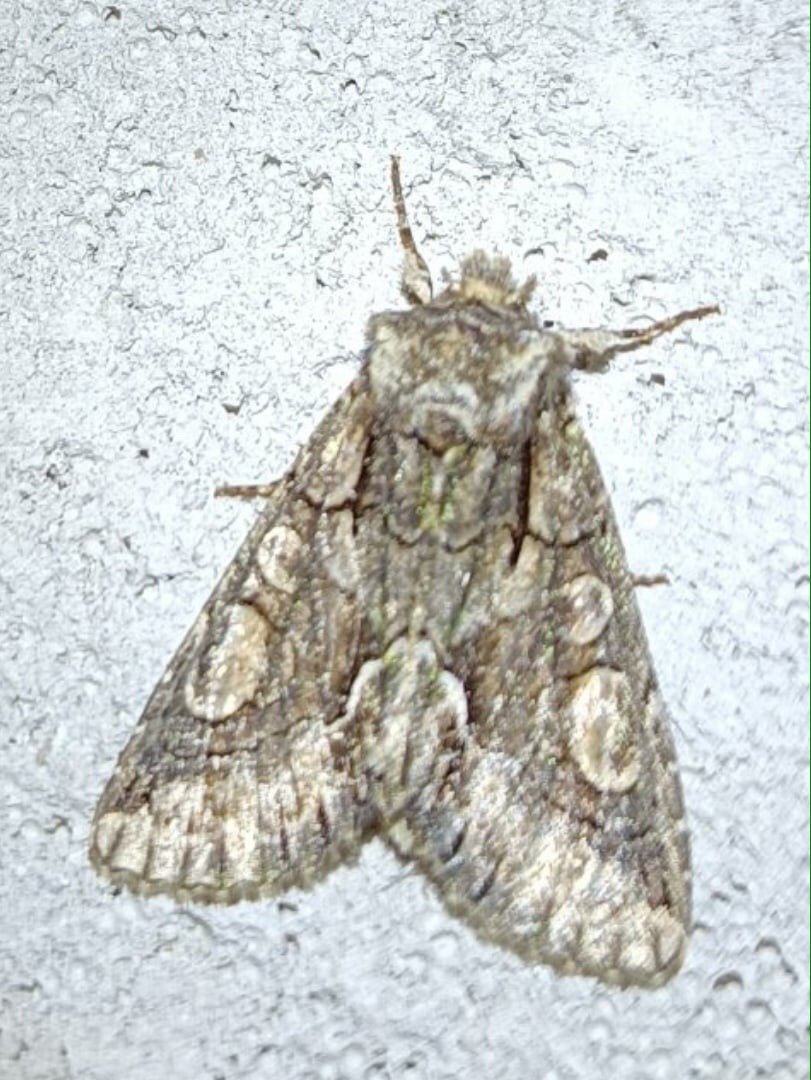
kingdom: Animalia
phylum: Arthropoda
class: Insecta
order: Lepidoptera
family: Noctuidae
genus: Allophyes
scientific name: Allophyes oxyacanthae
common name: Green-brindled crescent
